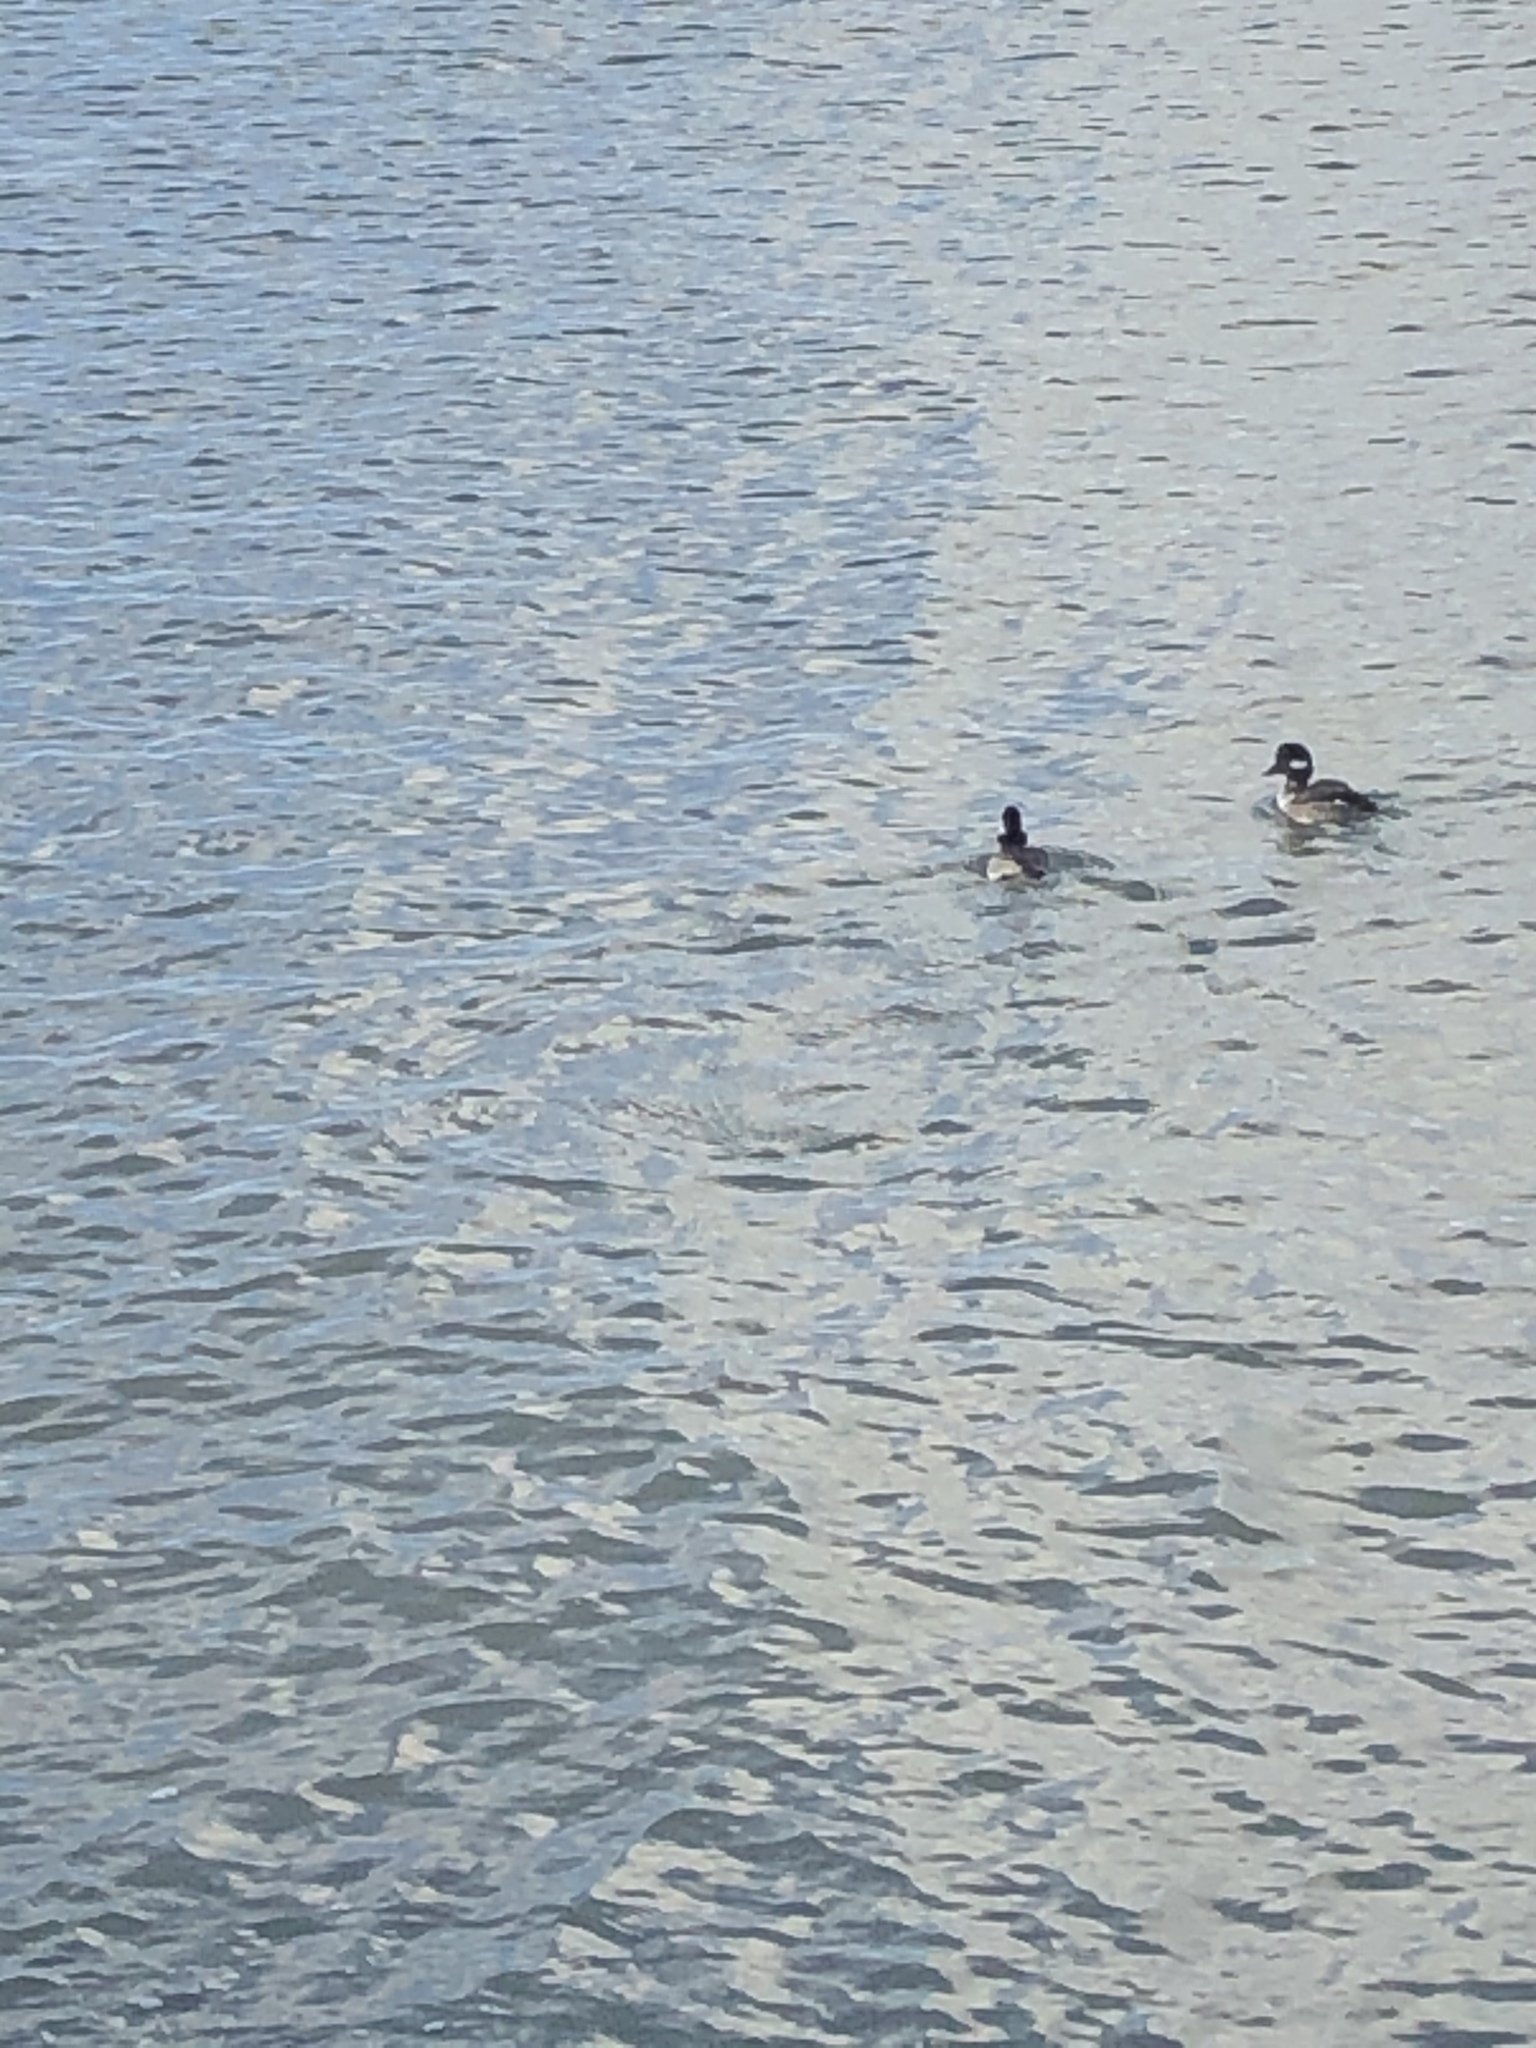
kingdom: Animalia
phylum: Chordata
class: Aves
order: Anseriformes
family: Anatidae
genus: Bucephala
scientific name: Bucephala albeola
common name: Bufflehead
